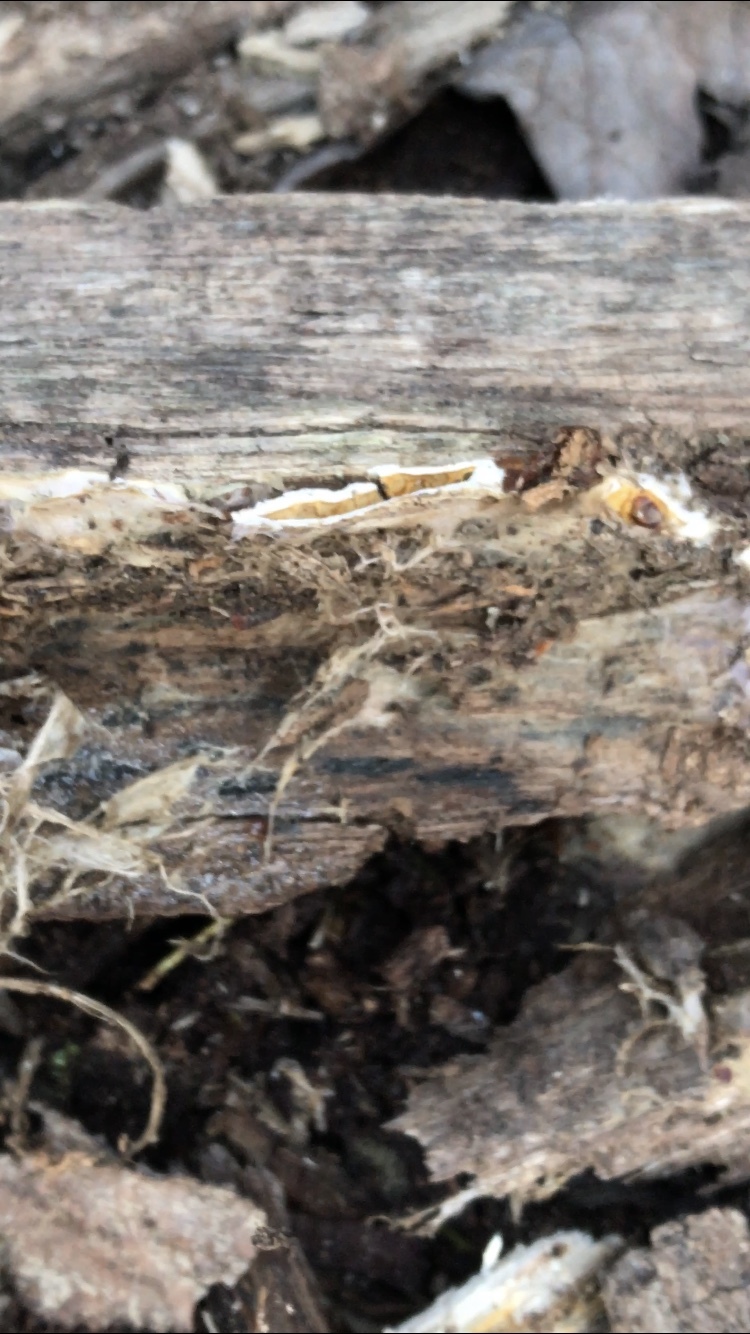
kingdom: Fungi
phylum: Basidiomycota
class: Agaricomycetes
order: Boletales
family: Serpulaceae
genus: Serpula
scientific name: Serpula himantioides
